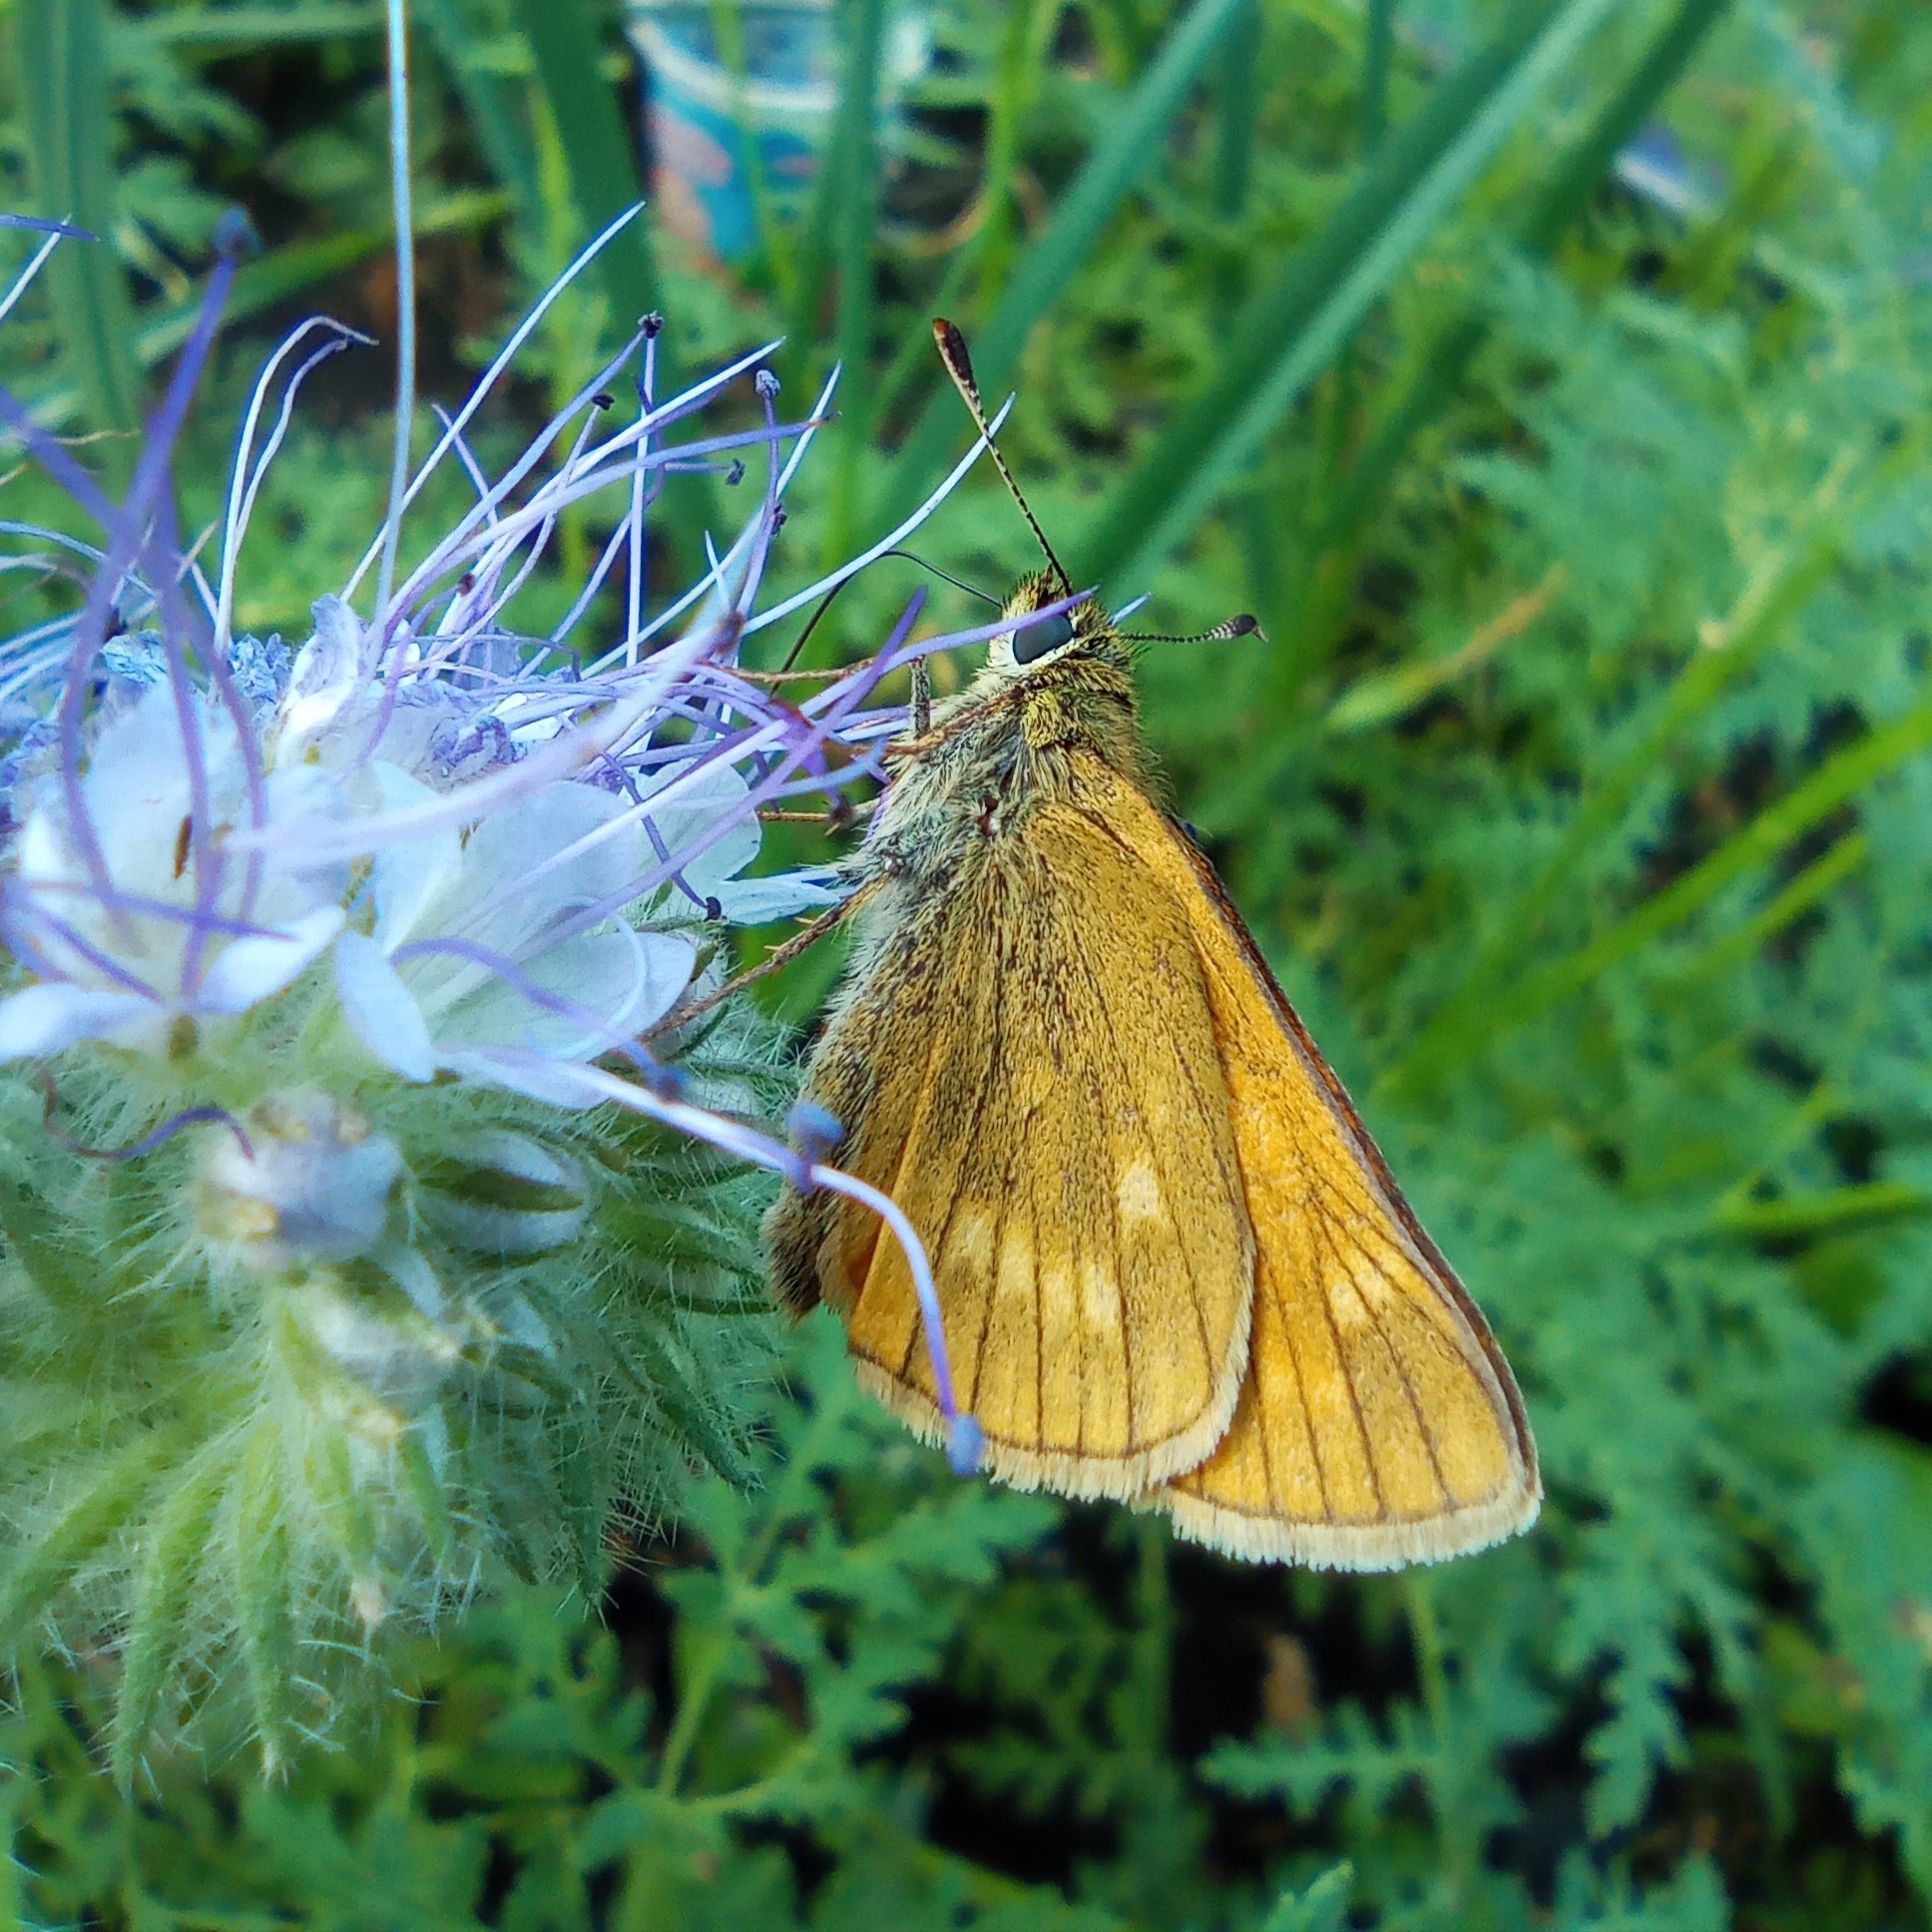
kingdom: Animalia
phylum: Arthropoda
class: Insecta
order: Lepidoptera
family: Hesperiidae
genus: Ochlodes
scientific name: Ochlodes venata
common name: Large skipper
